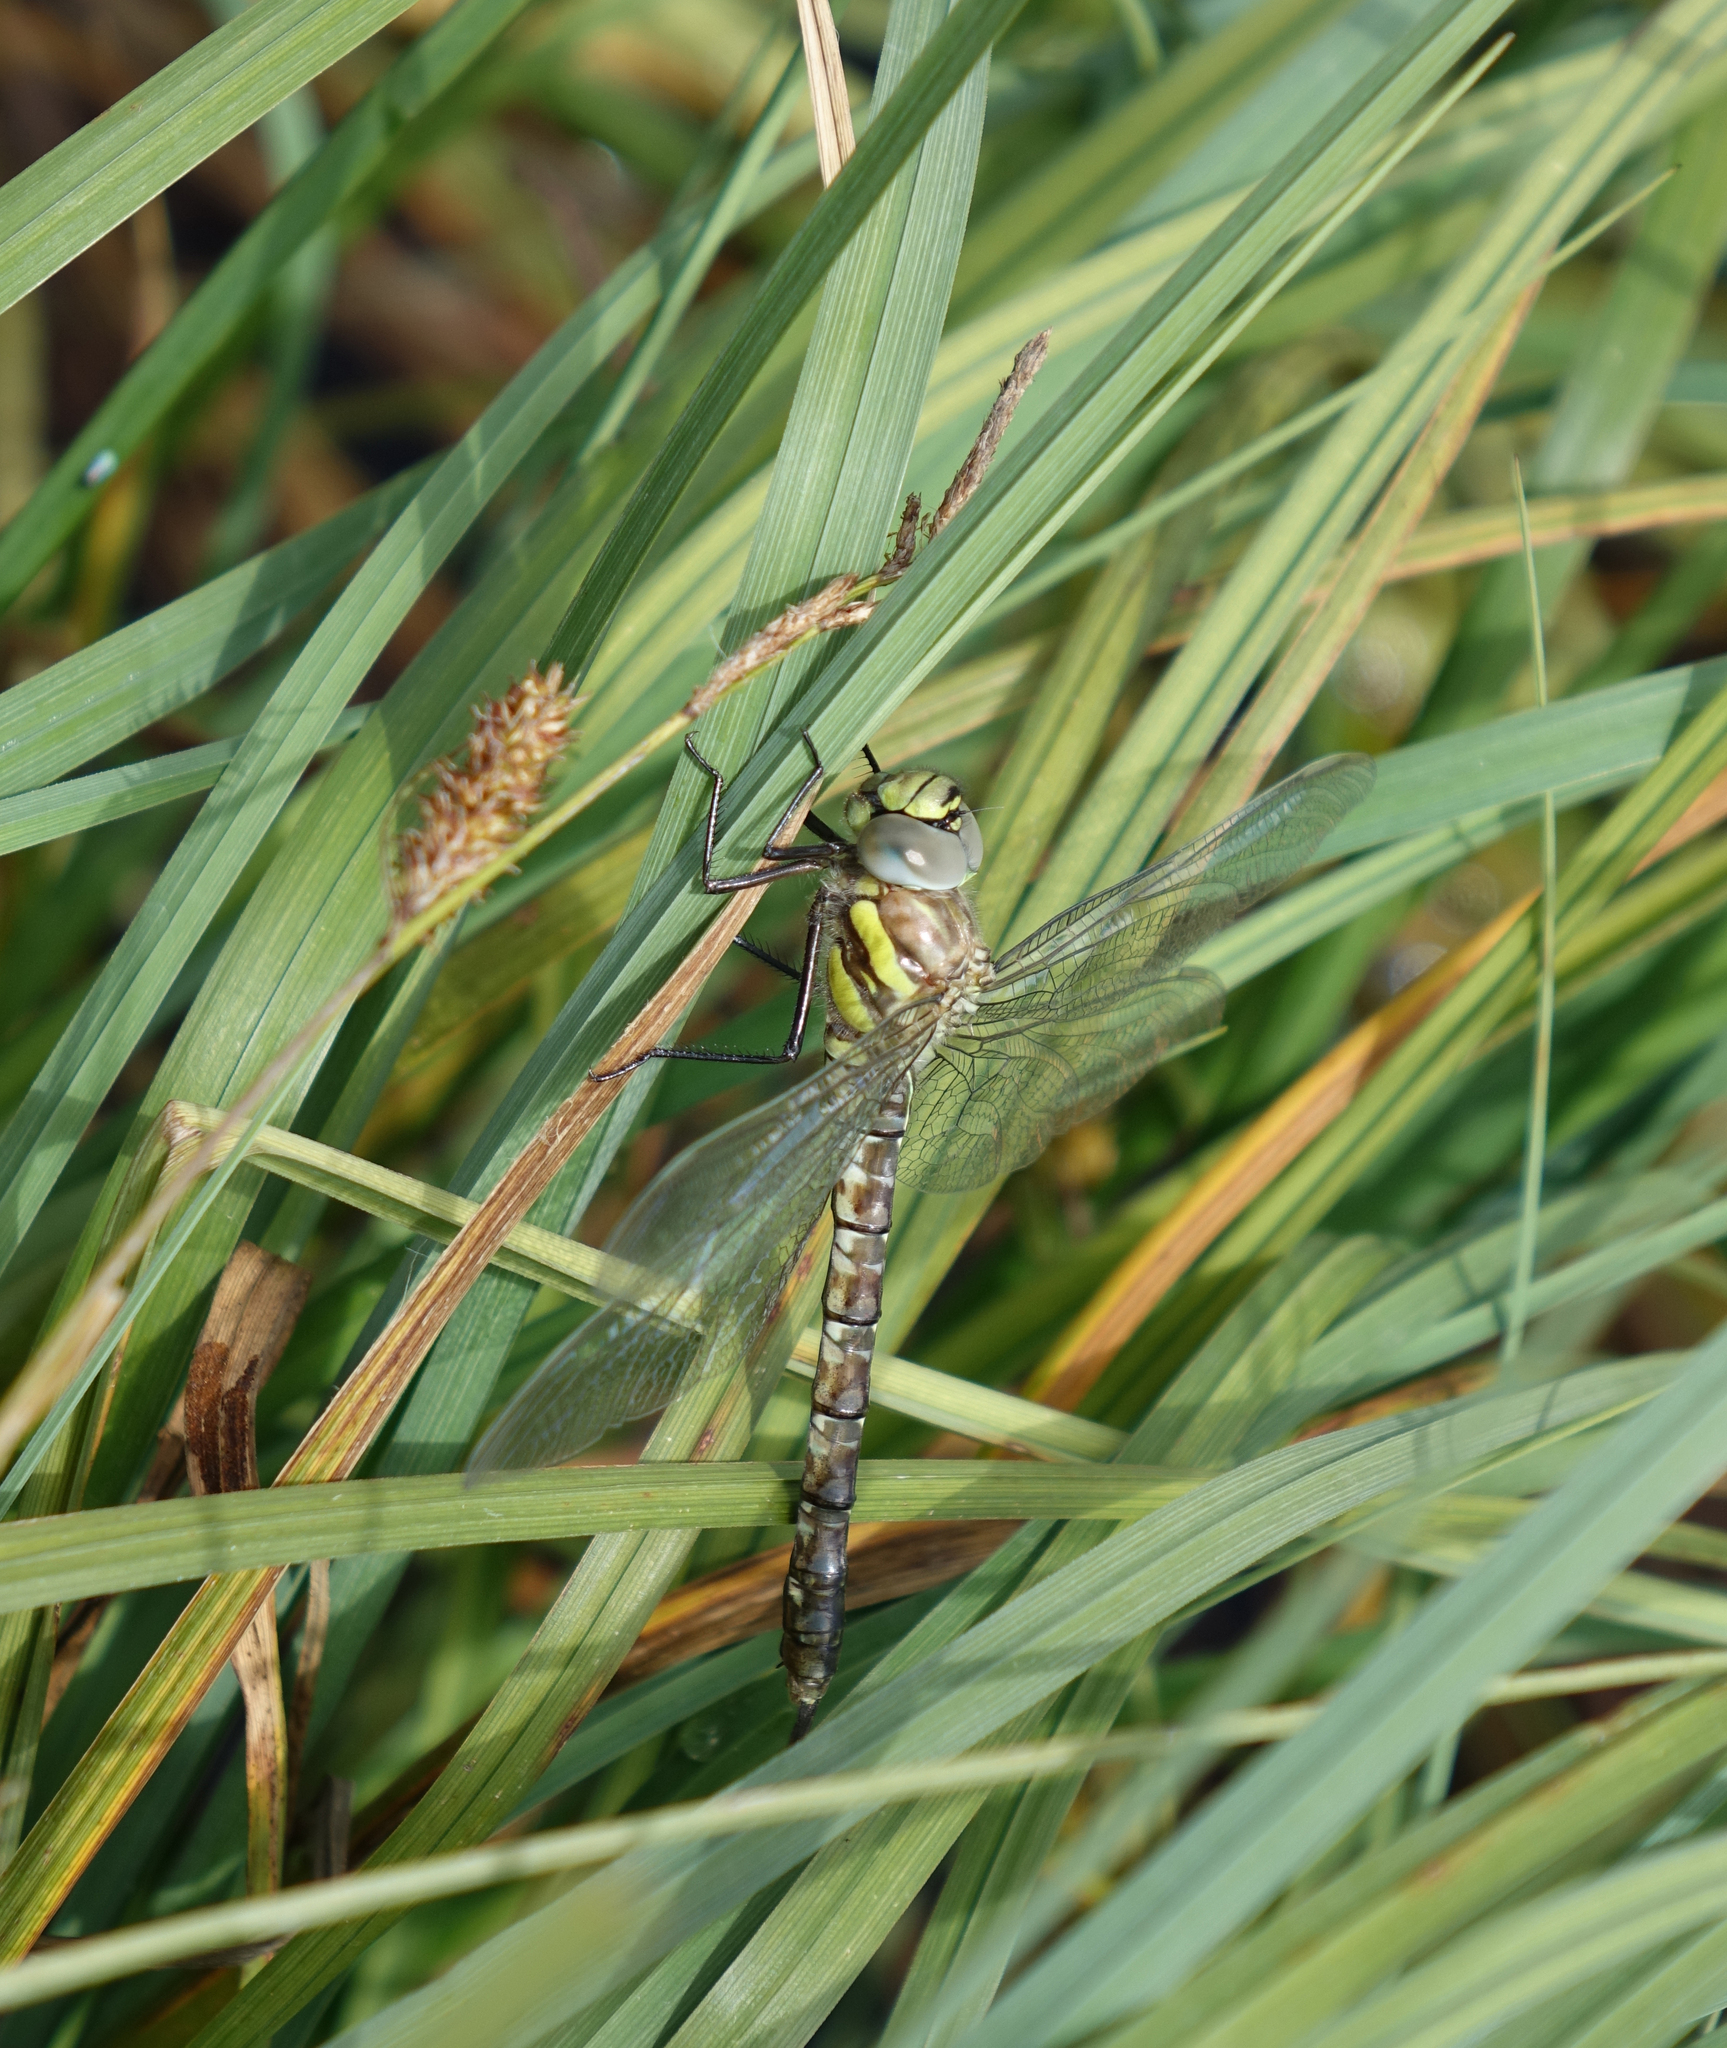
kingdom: Animalia
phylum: Arthropoda
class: Insecta
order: Odonata
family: Aeshnidae
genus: Aeshna
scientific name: Aeshna juncea
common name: Moorland hawker
